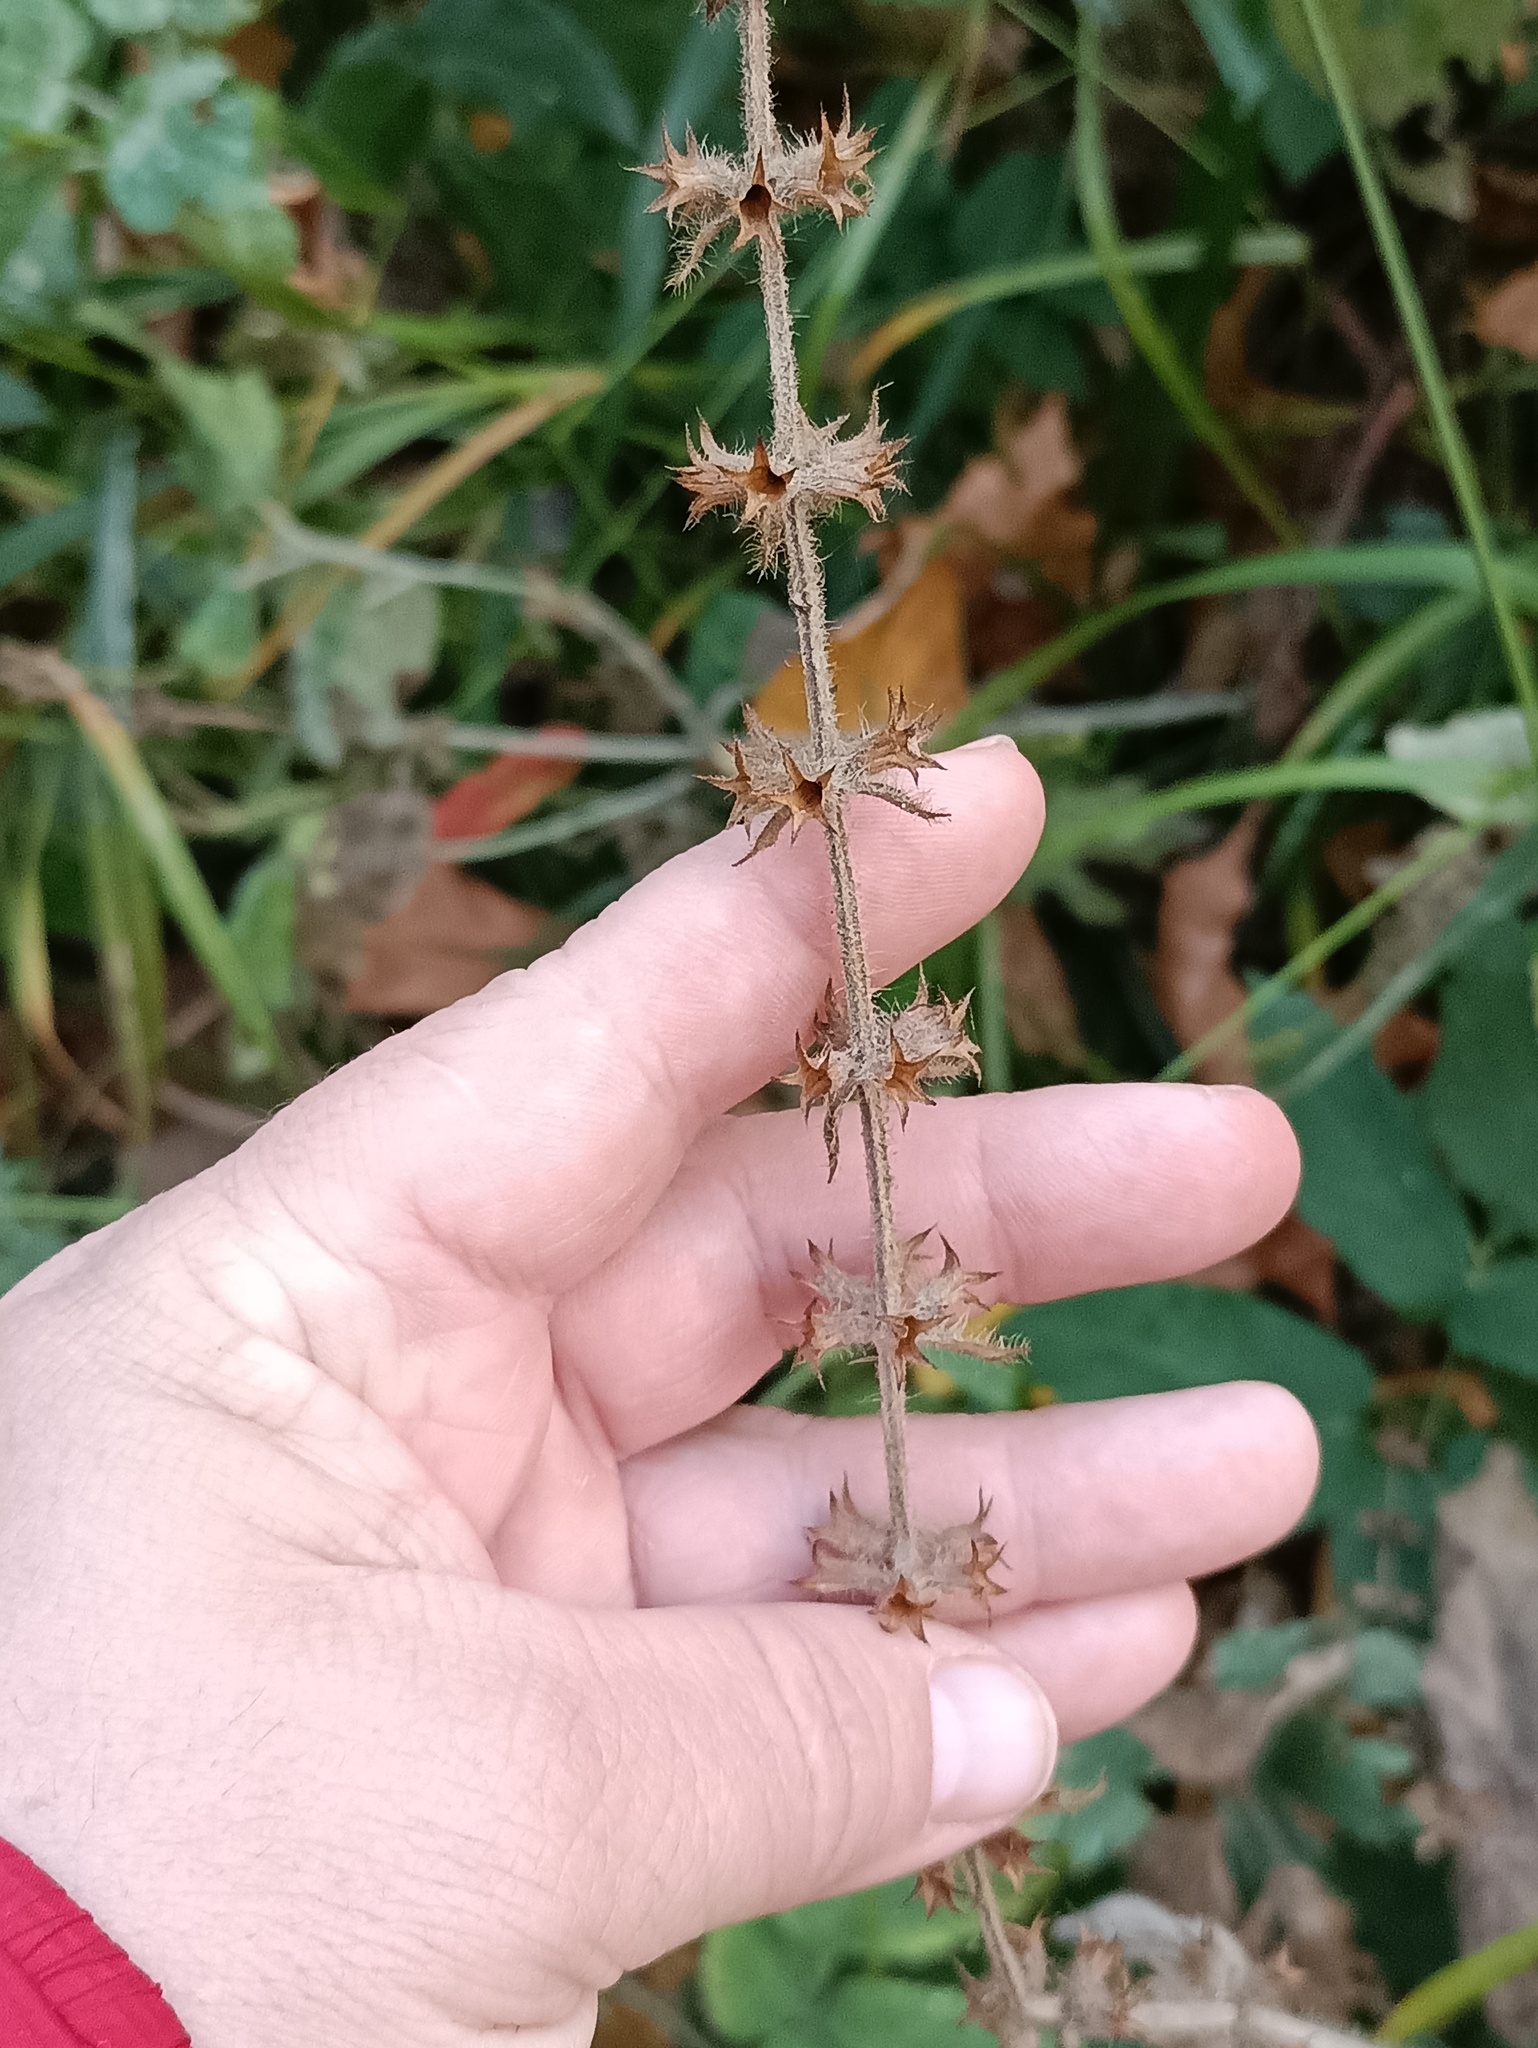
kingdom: Plantae
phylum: Tracheophyta
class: Magnoliopsida
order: Lamiales
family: Lamiaceae
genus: Stachys
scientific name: Stachys sylvatica
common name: Hedge woundwort
